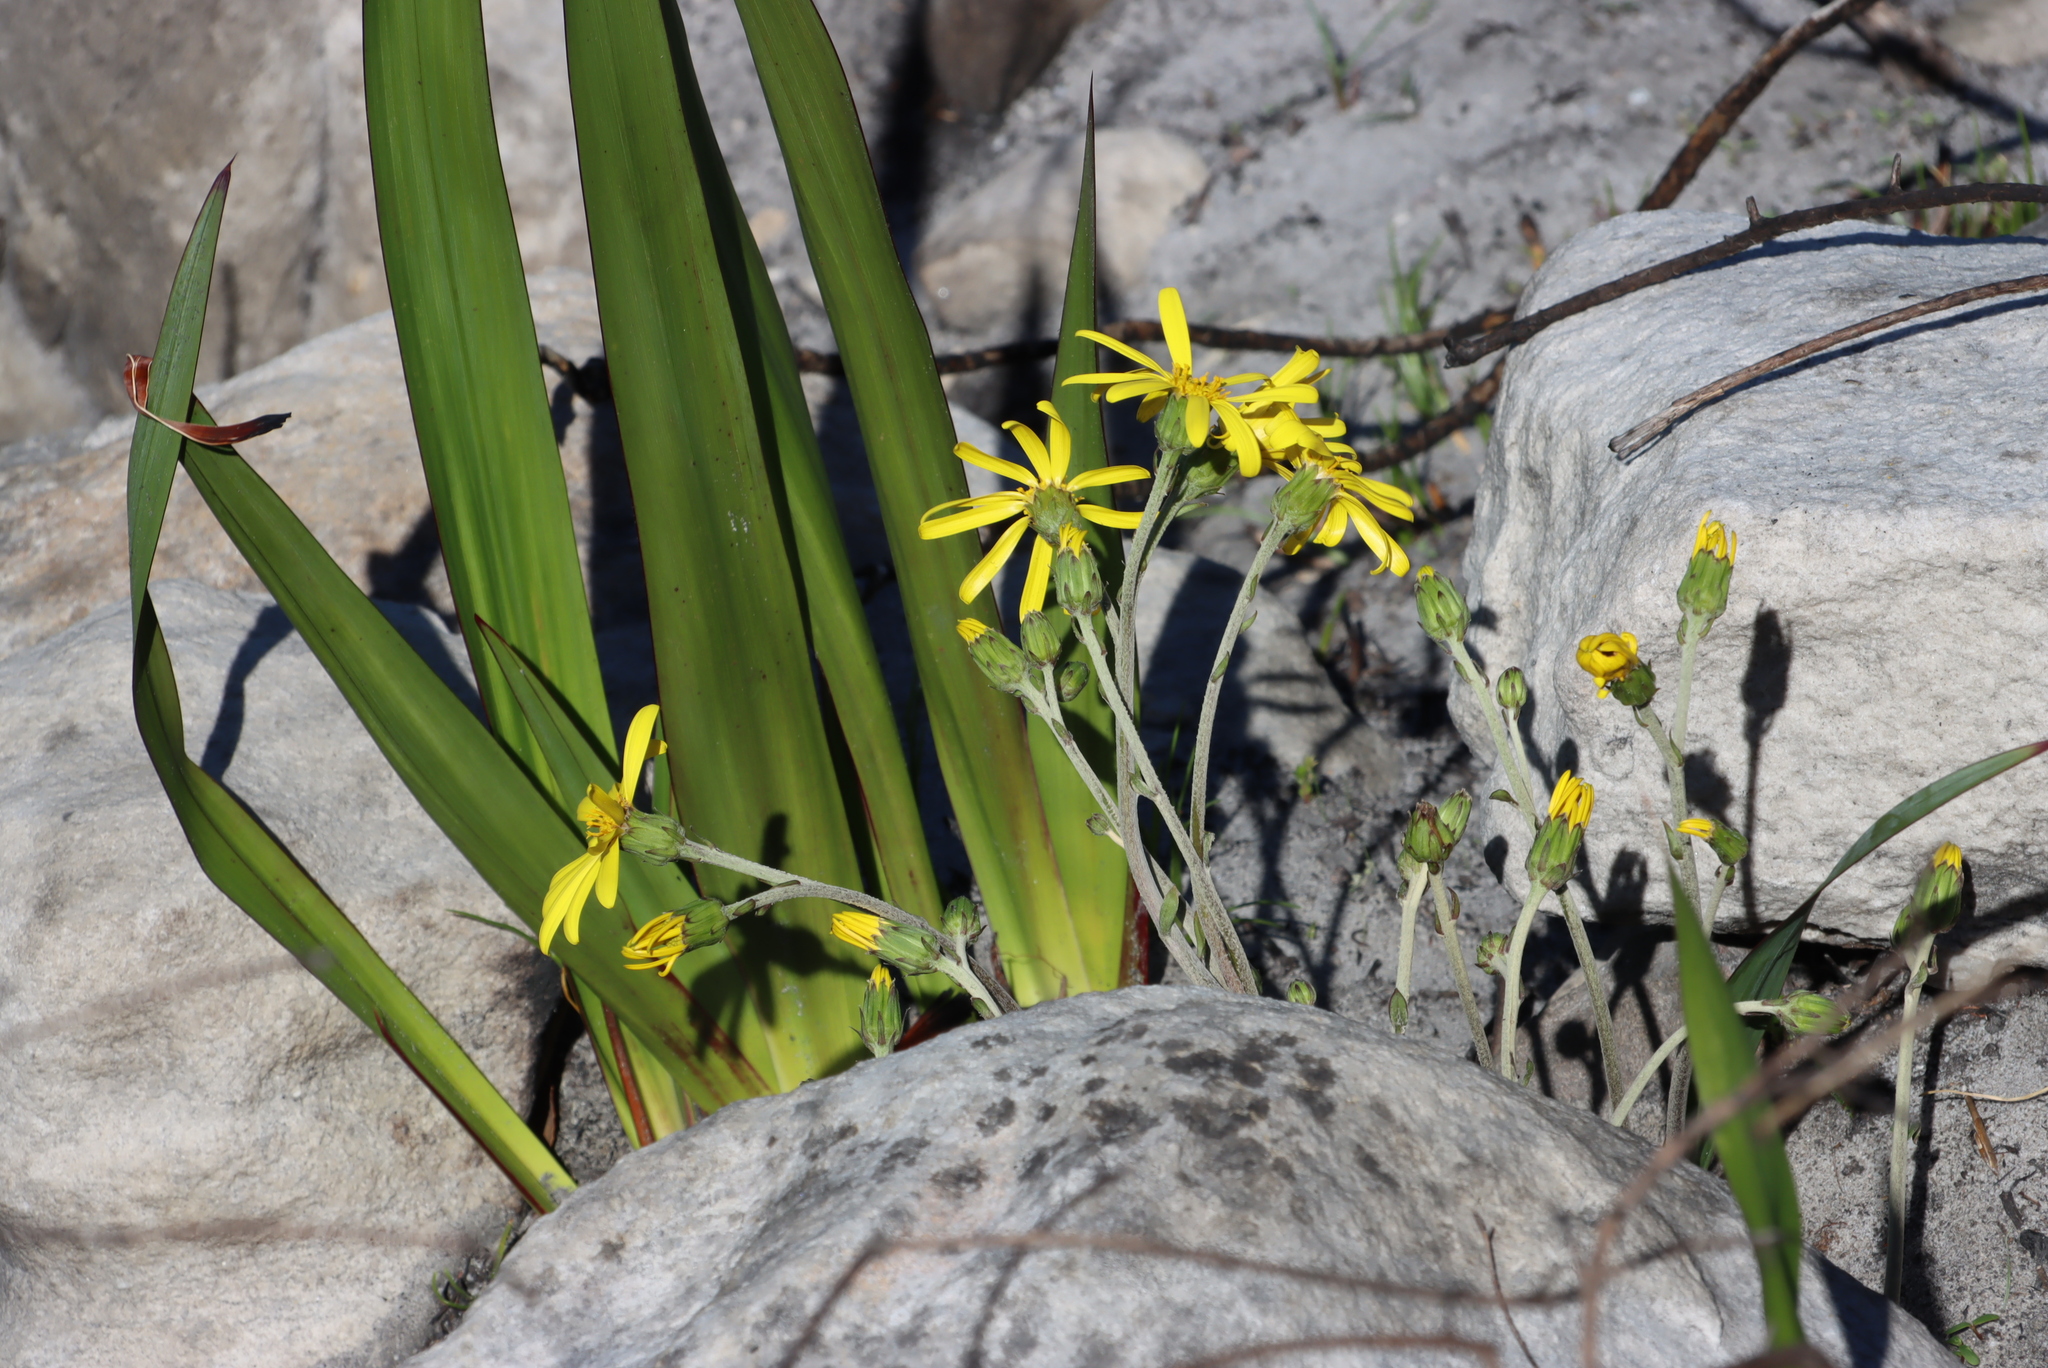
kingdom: Plantae
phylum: Tracheophyta
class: Magnoliopsida
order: Asterales
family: Asteraceae
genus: Capelio
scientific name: Capelio tabularis
